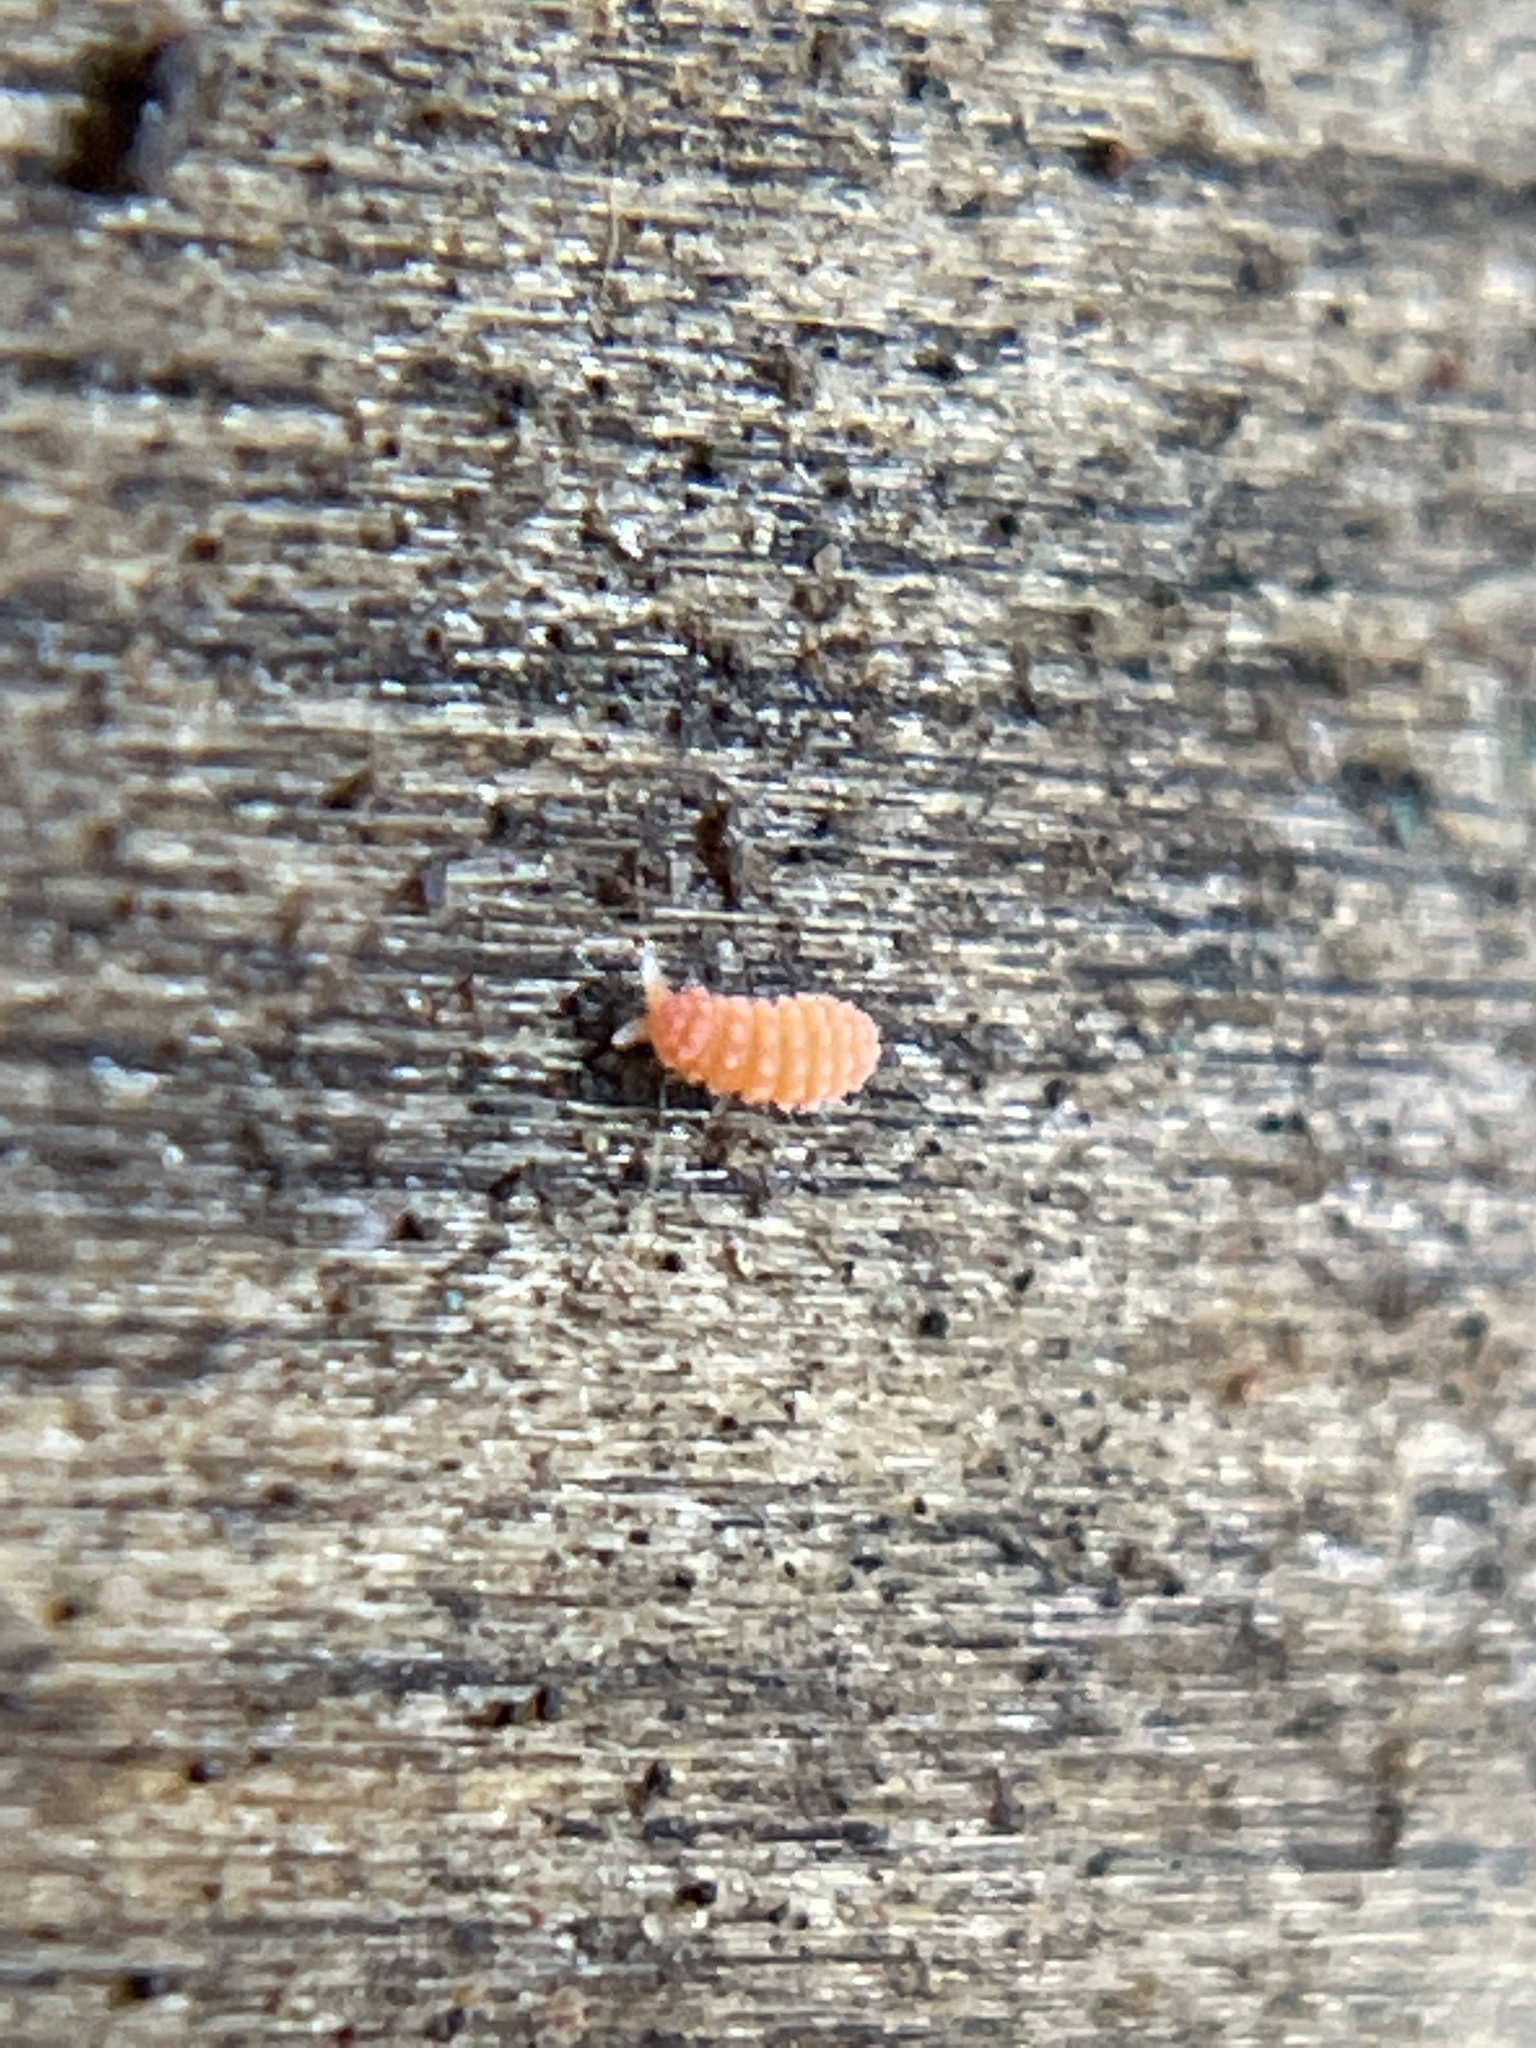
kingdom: Animalia
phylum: Arthropoda
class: Collembola
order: Poduromorpha
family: Neanuridae
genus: Vitronura
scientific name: Vitronura giselae
